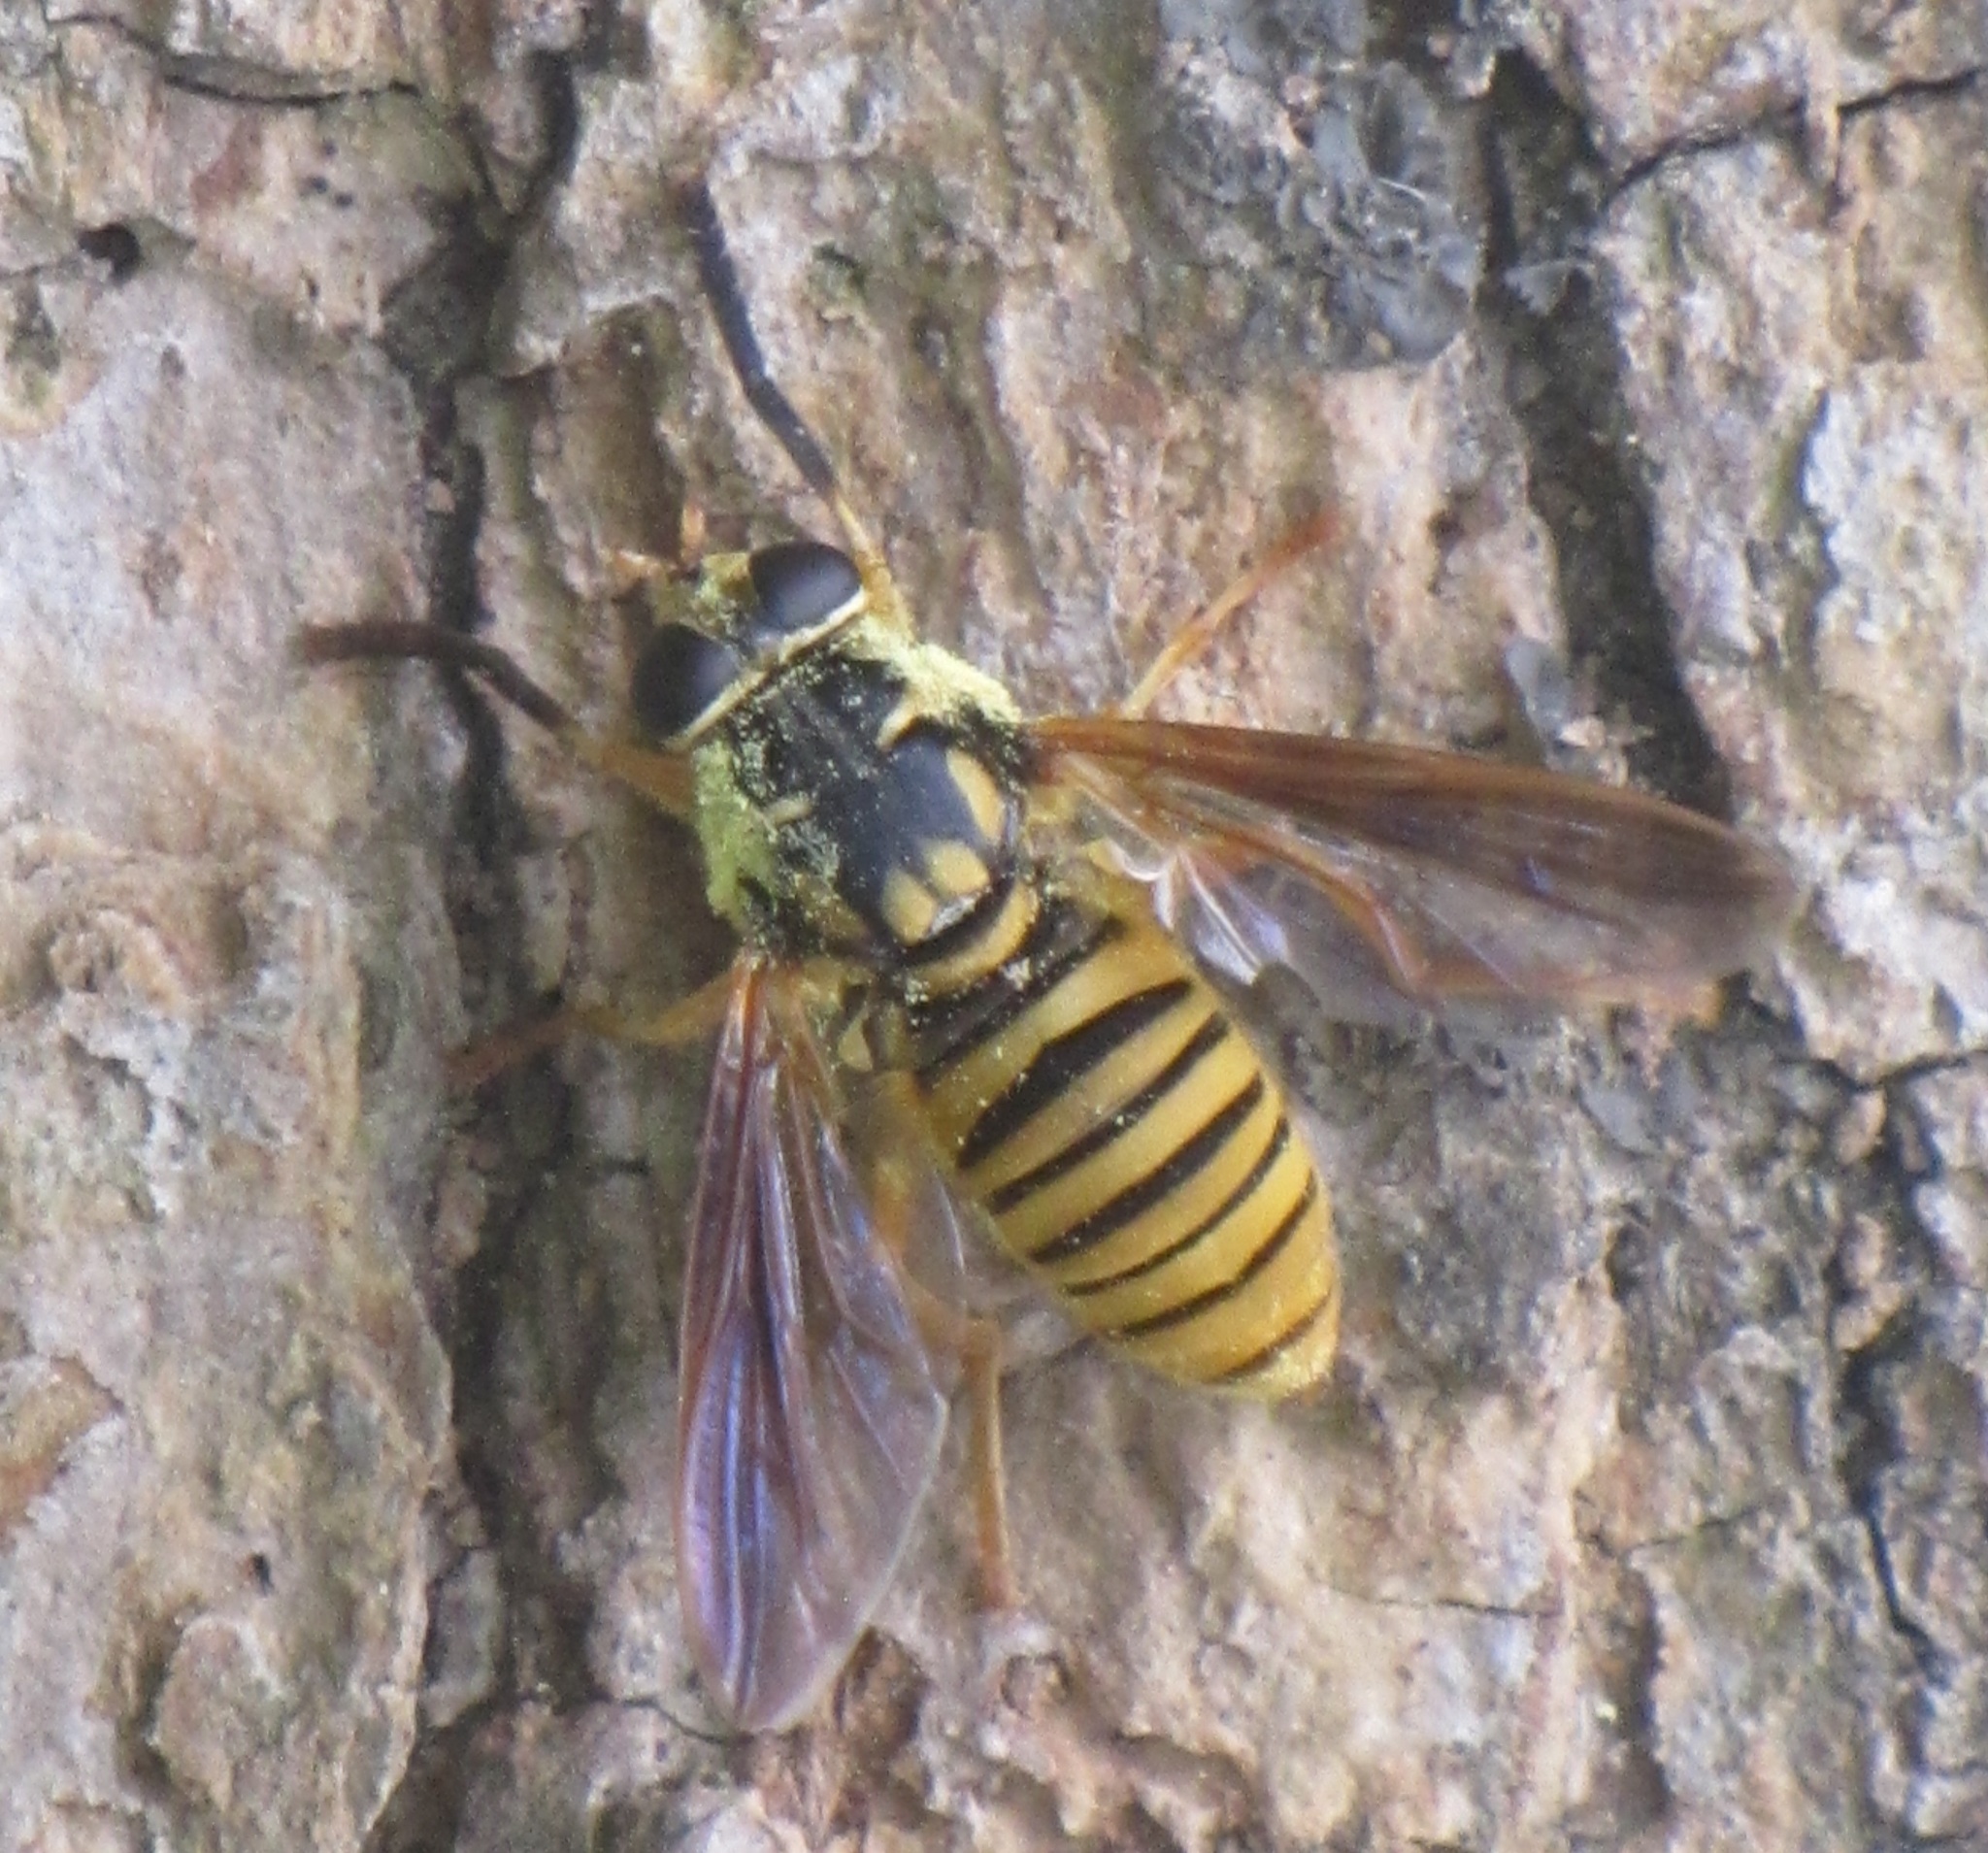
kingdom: Animalia
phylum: Arthropoda
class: Insecta
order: Diptera
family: Syrphidae
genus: Temnostoma
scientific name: Temnostoma daochum
